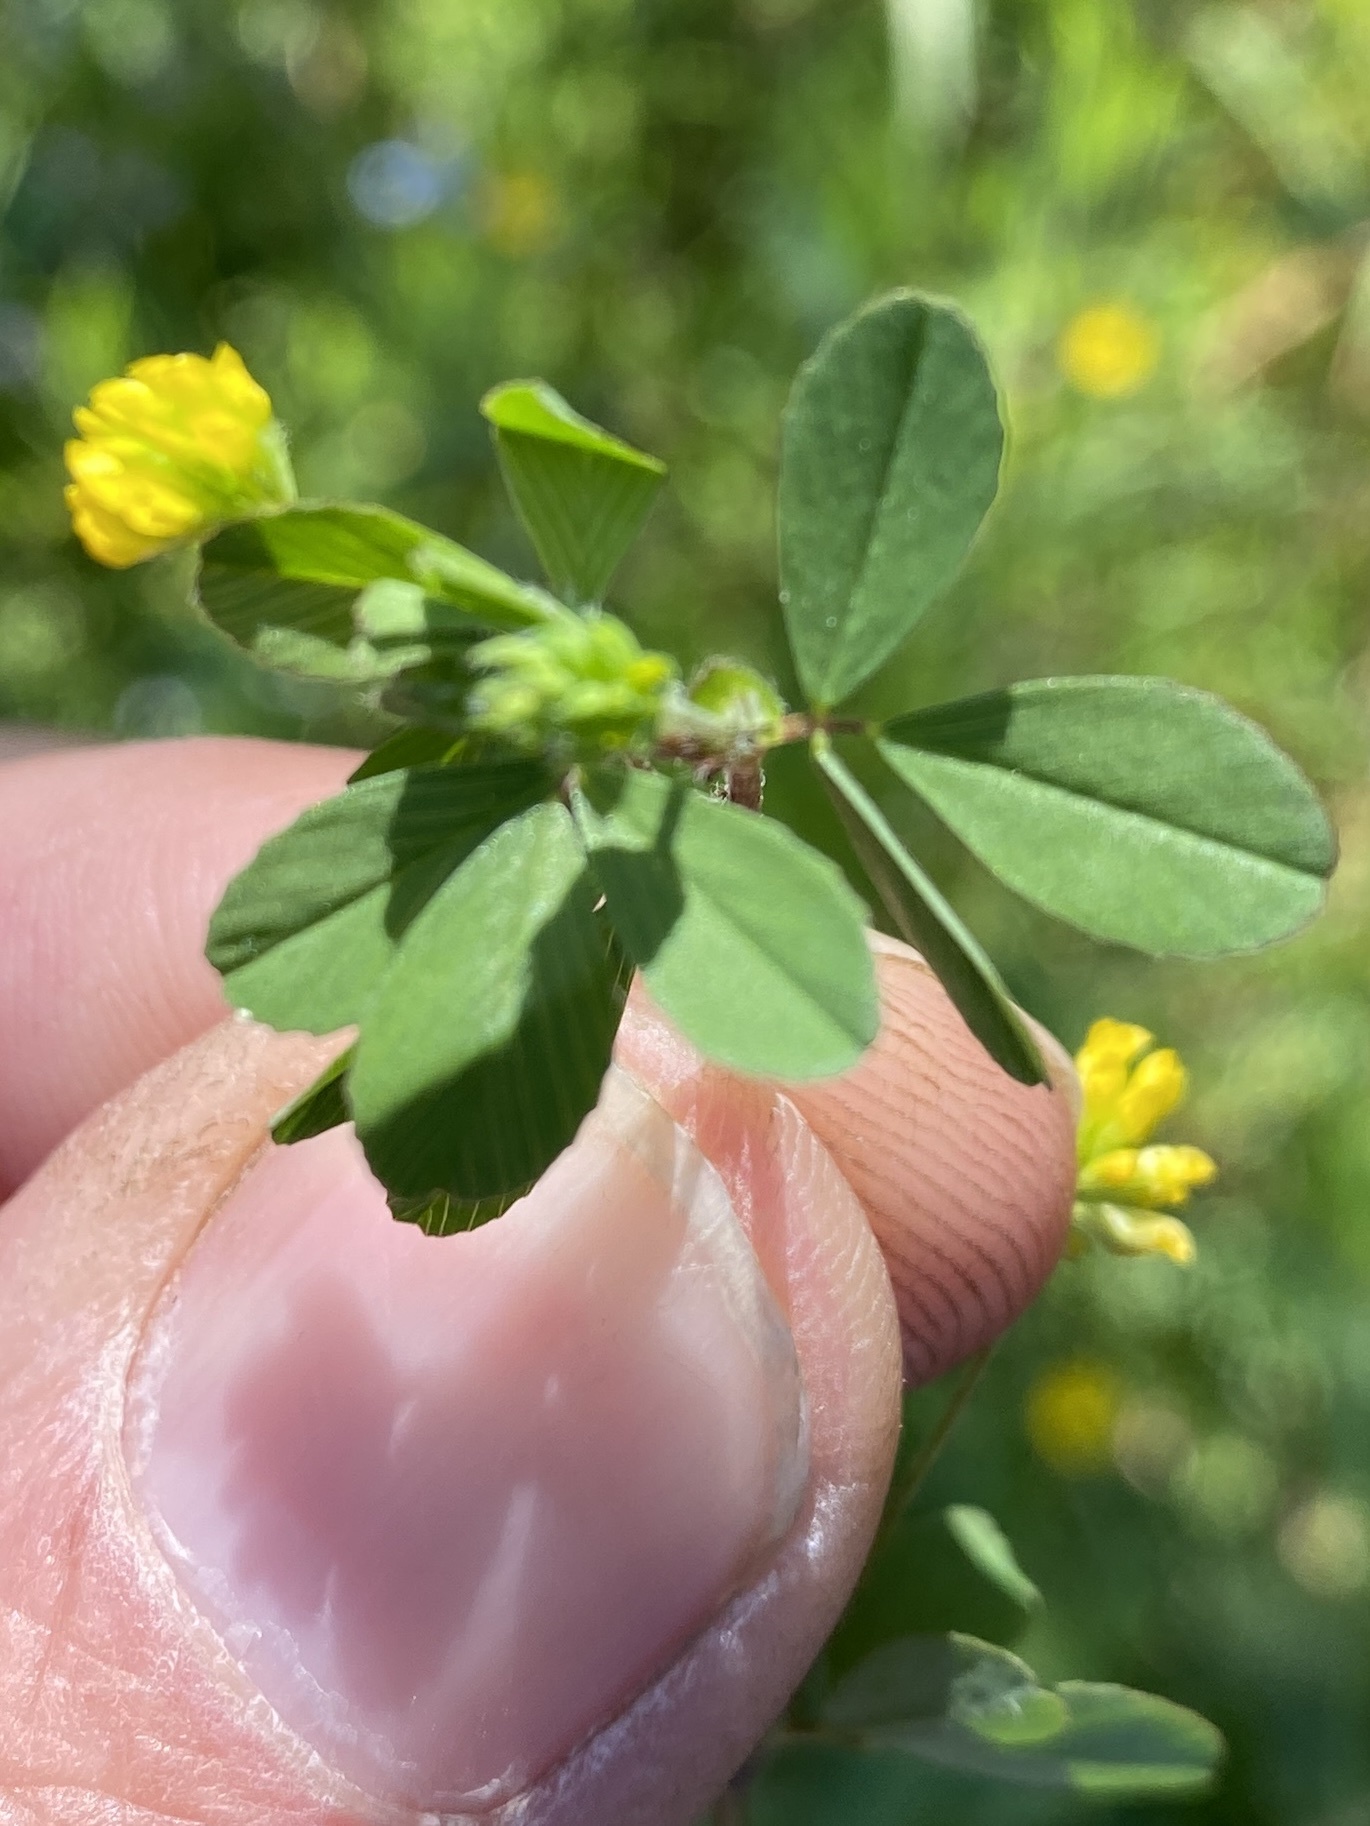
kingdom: Plantae
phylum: Tracheophyta
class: Magnoliopsida
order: Fabales
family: Fabaceae
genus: Trifolium
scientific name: Trifolium dubium
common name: Suckling clover
